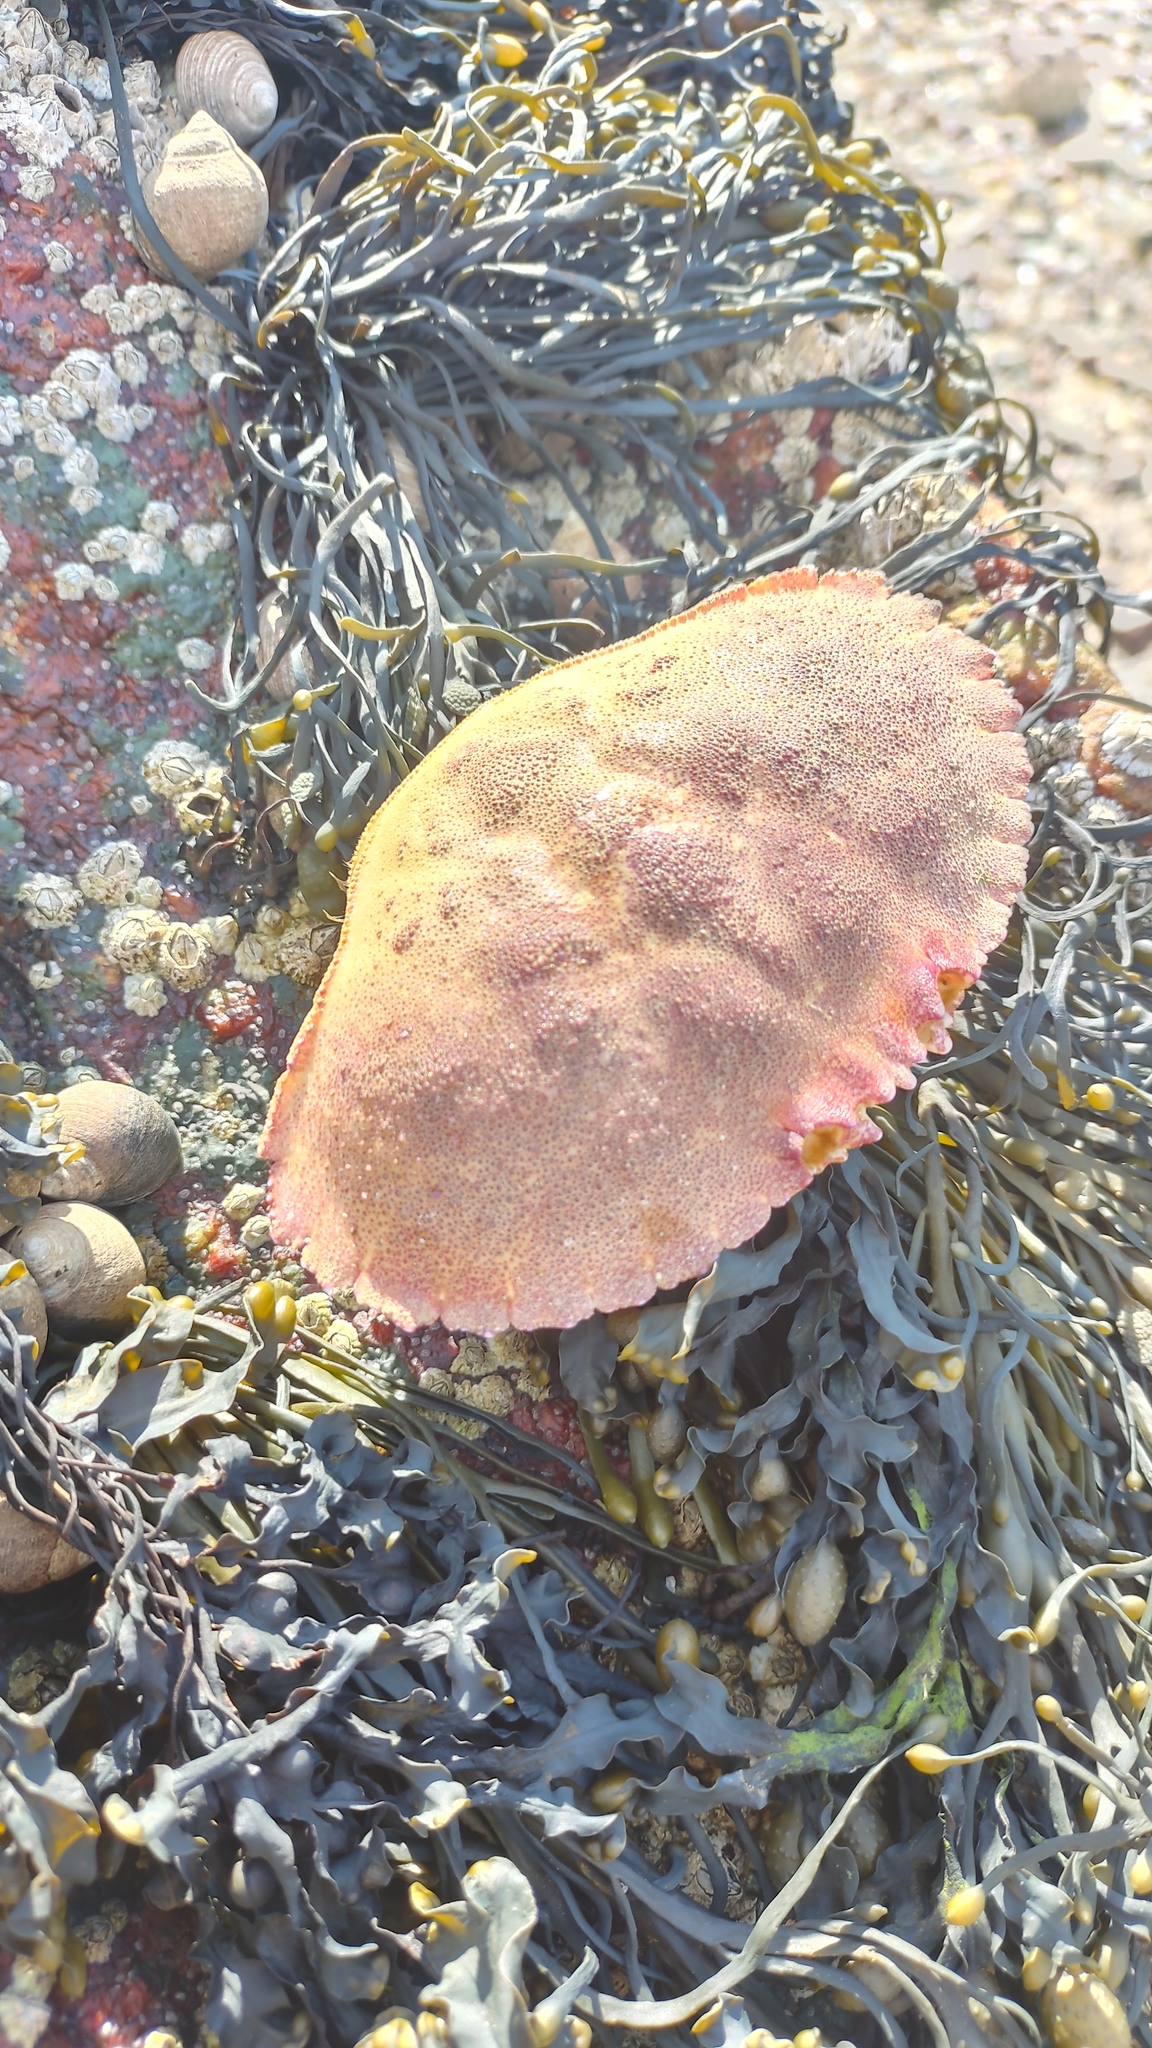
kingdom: Animalia
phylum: Arthropoda
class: Malacostraca
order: Decapoda
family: Cancridae
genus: Cancer
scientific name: Cancer borealis
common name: Jonah crab
